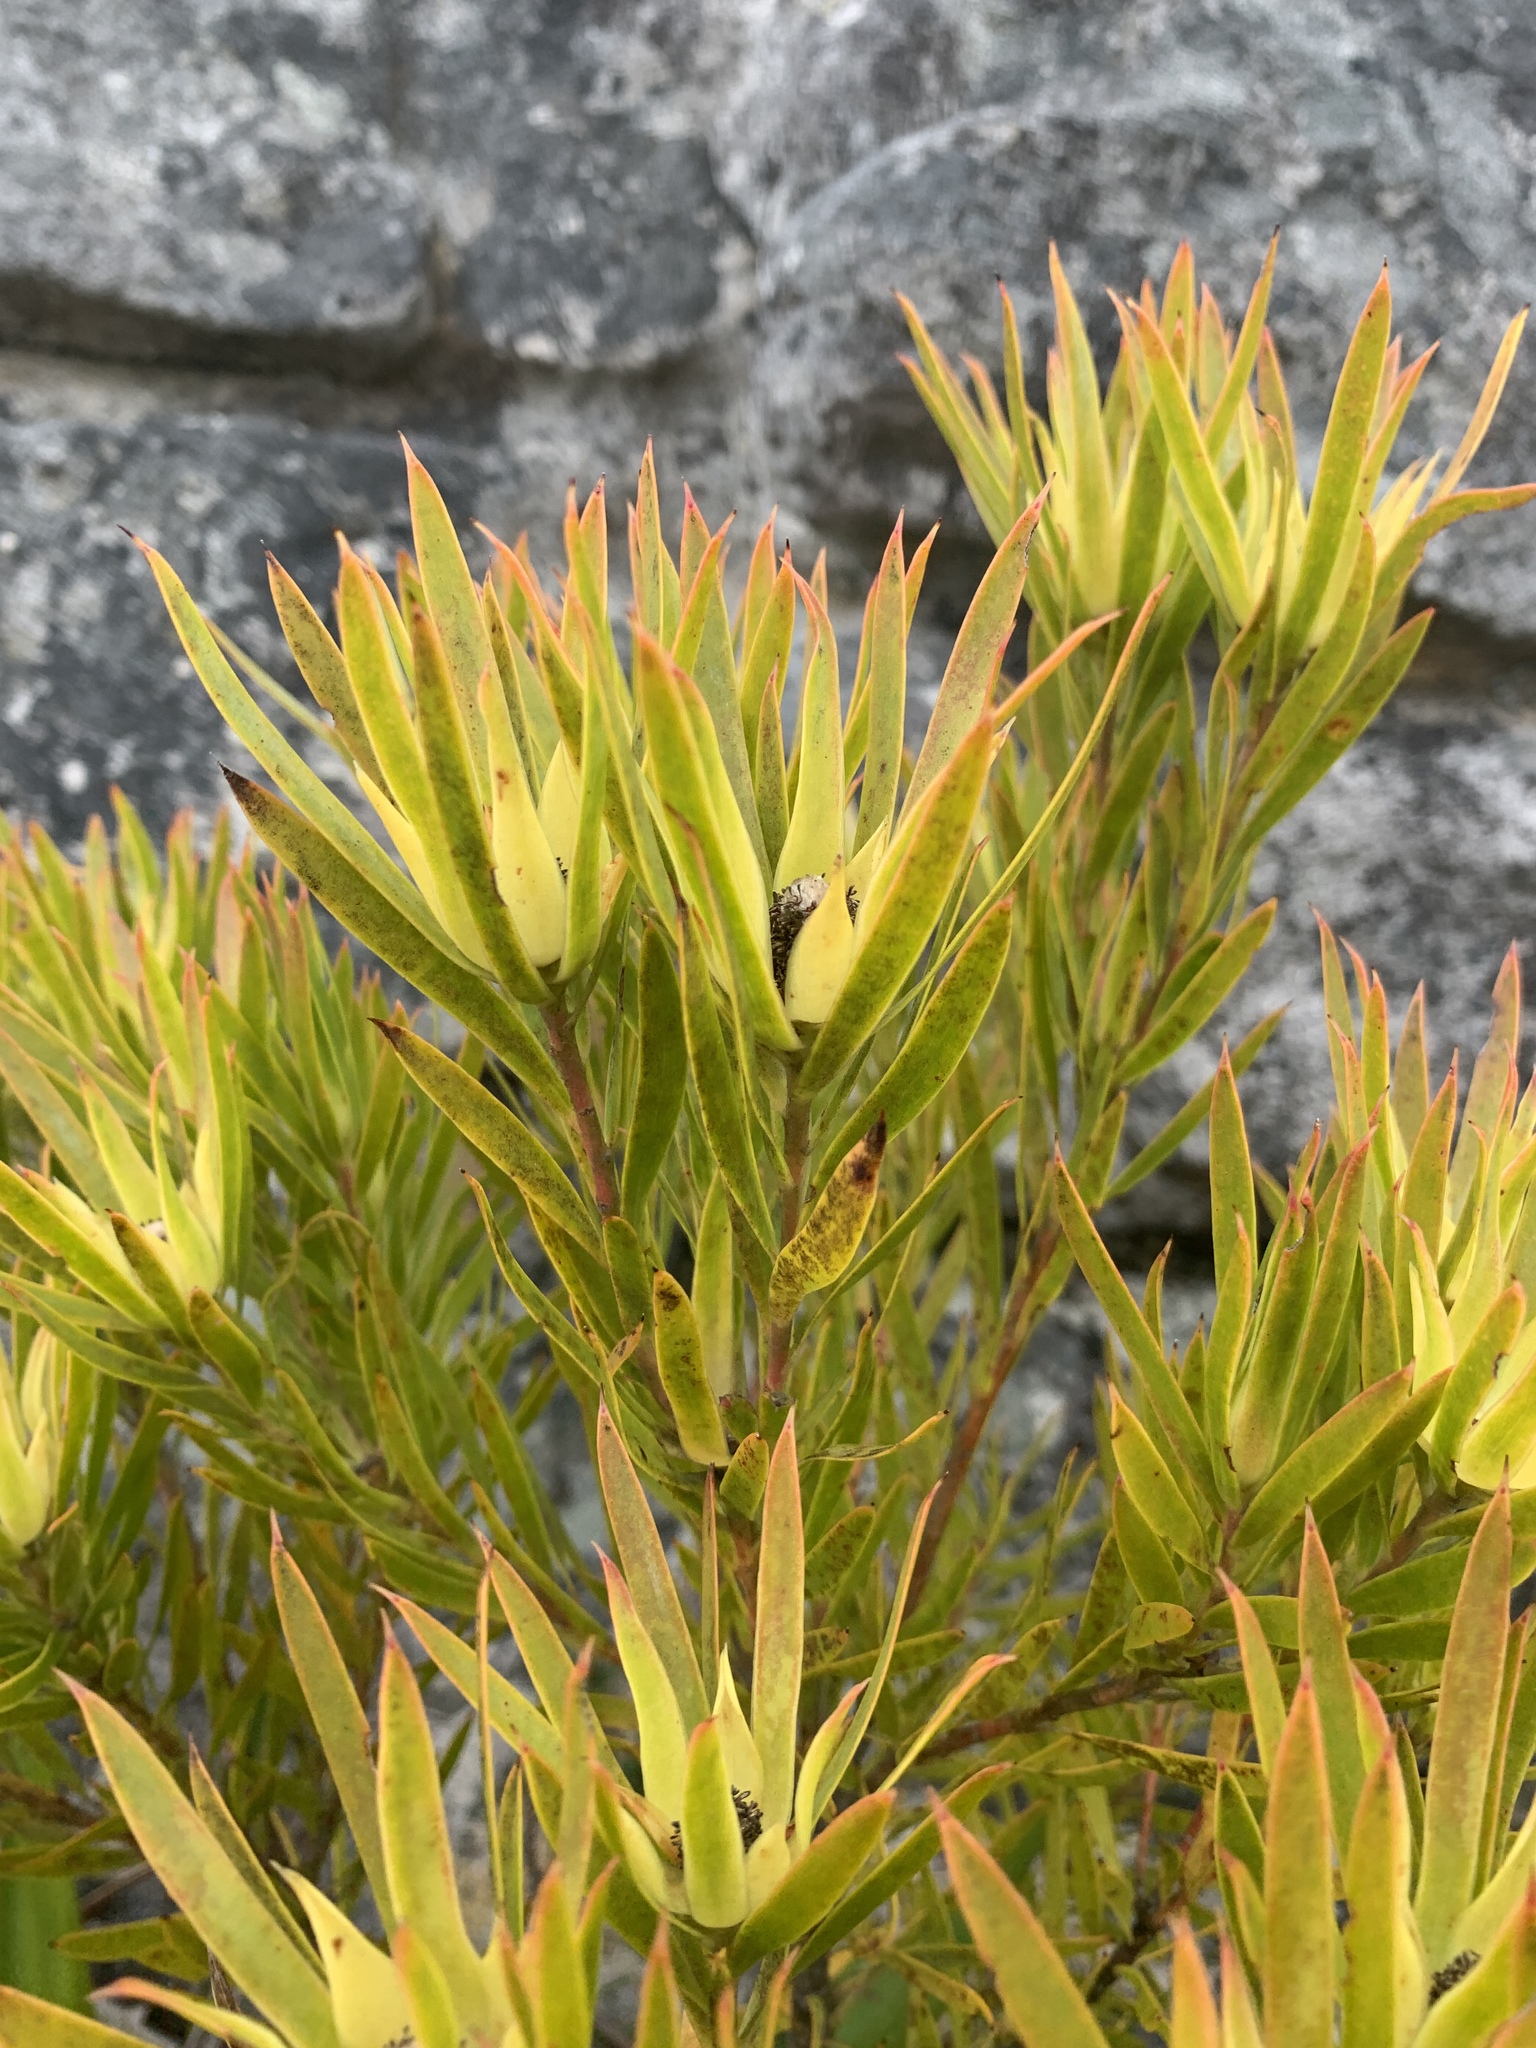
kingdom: Plantae
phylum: Tracheophyta
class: Magnoliopsida
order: Proteales
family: Proteaceae
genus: Leucadendron
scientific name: Leucadendron xanthoconus
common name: Sickle-leaf conebush
